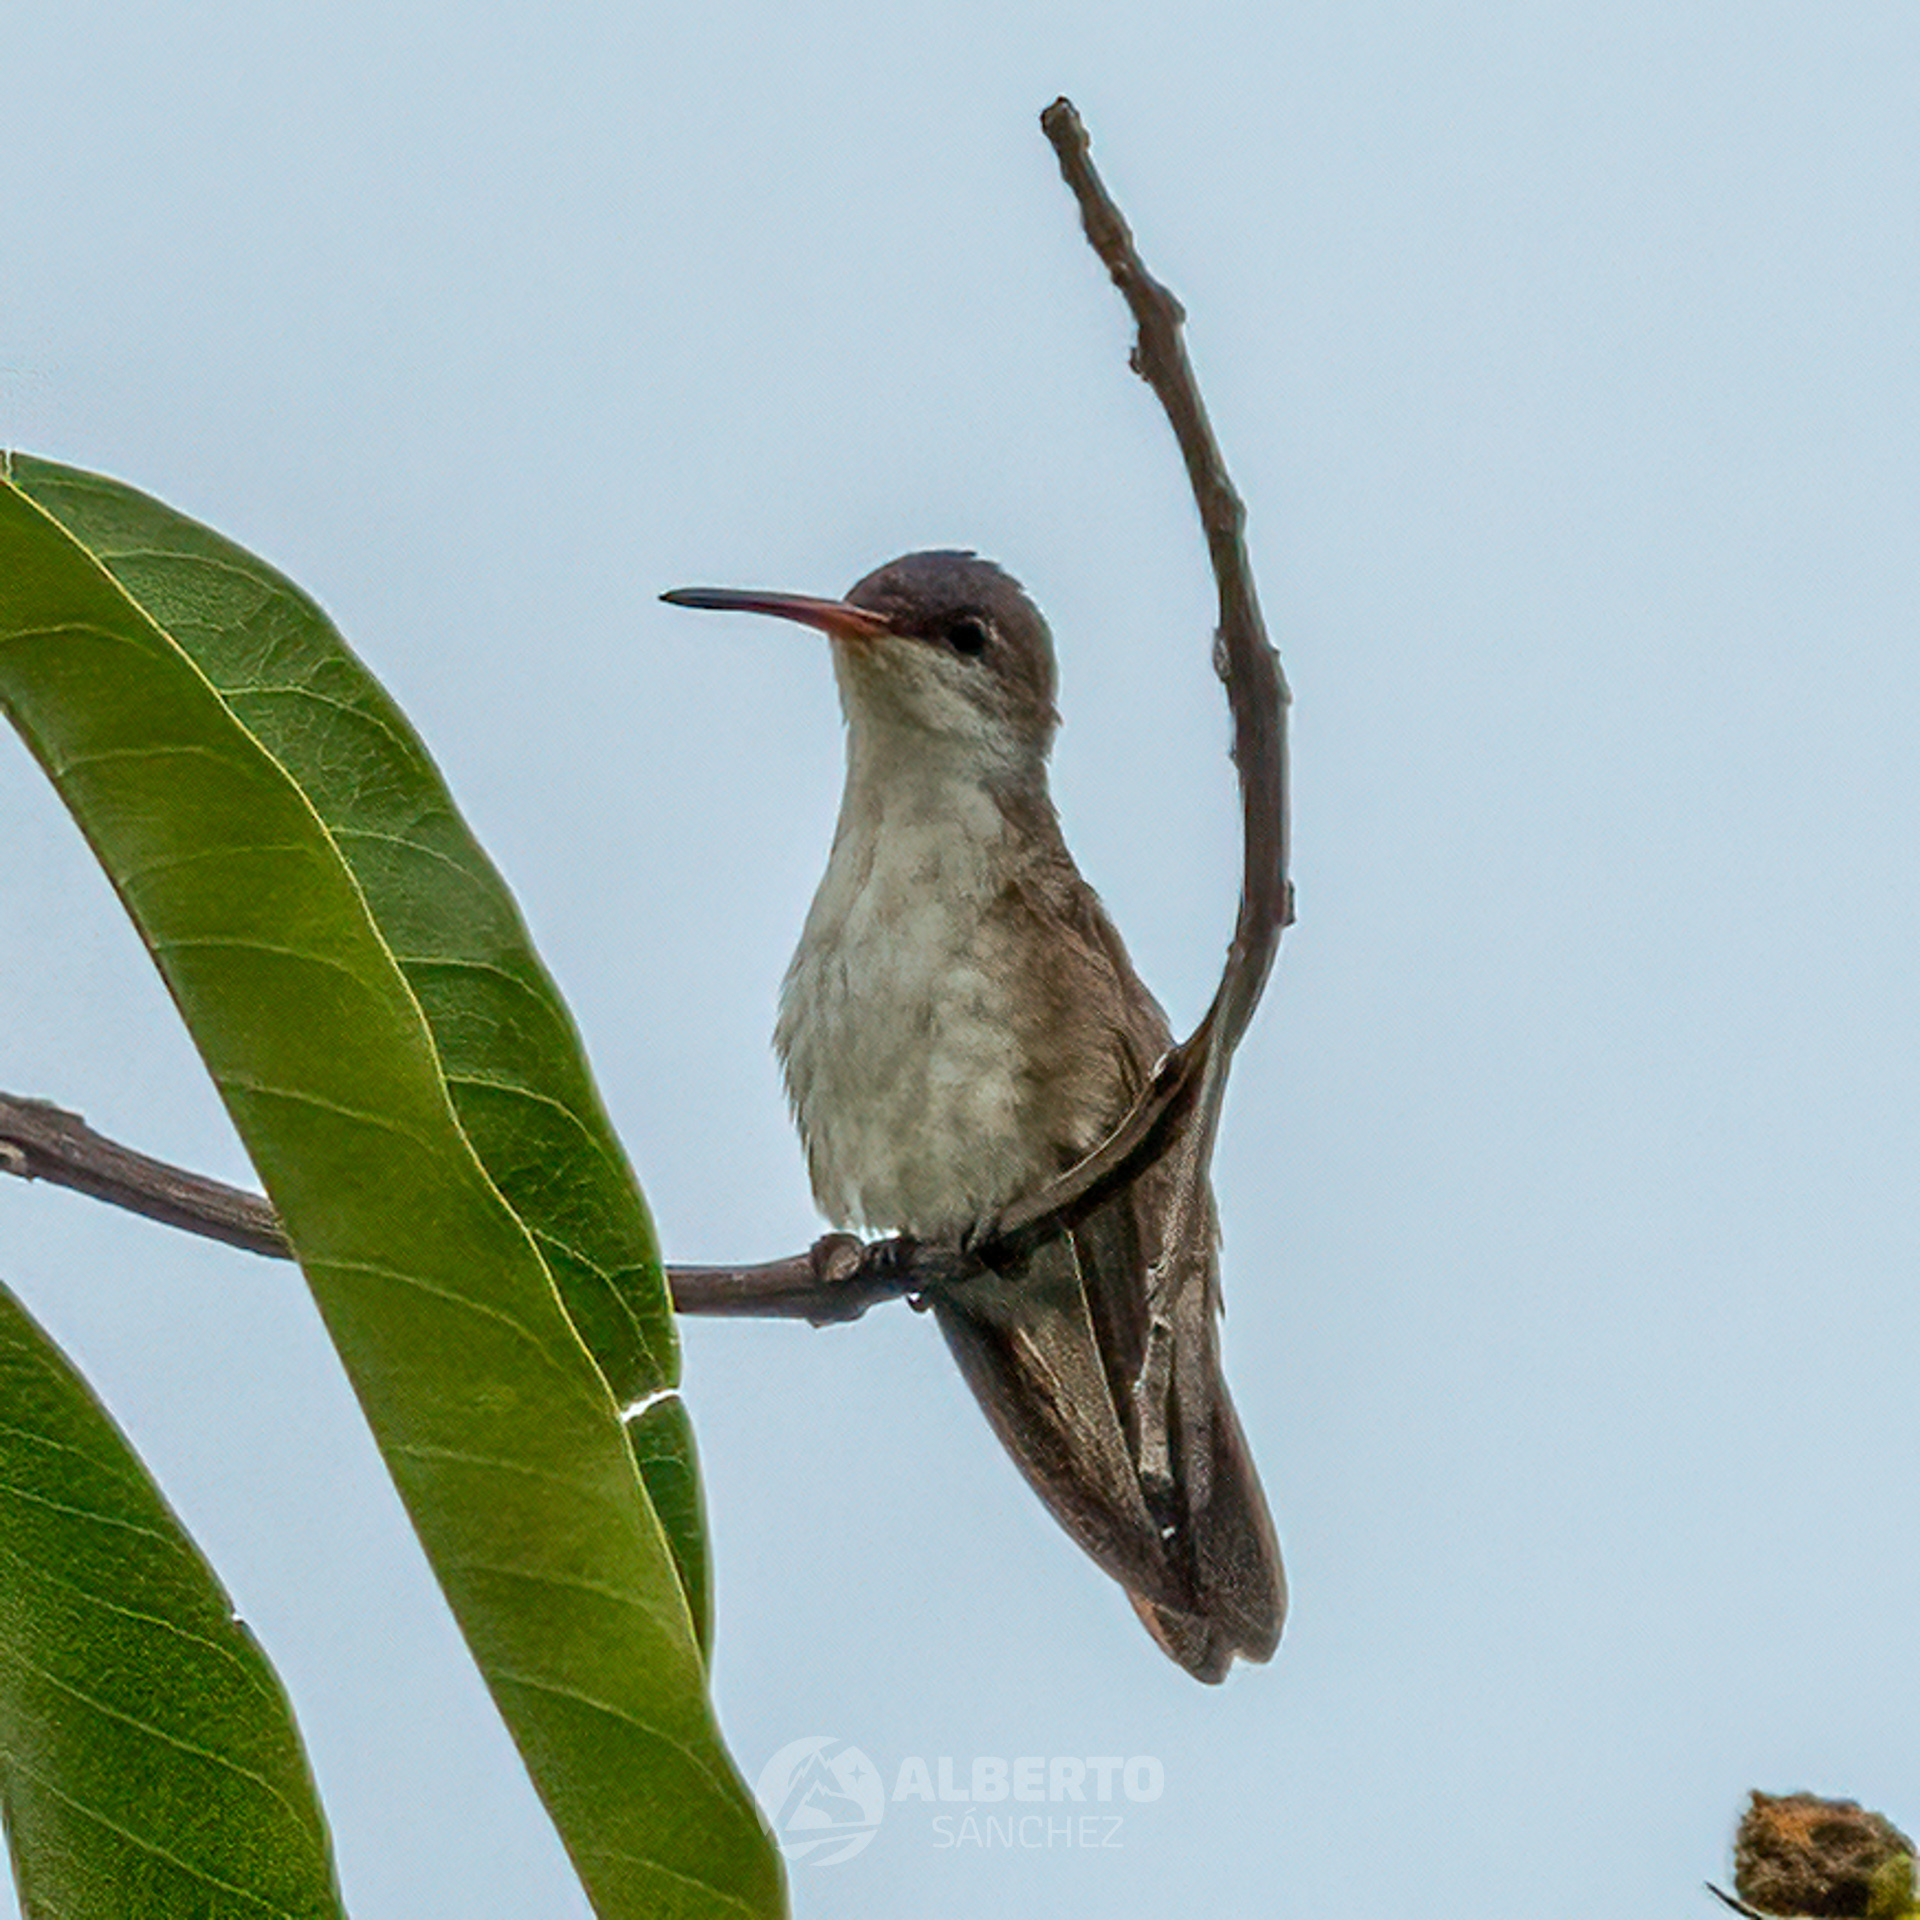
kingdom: Animalia
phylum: Chordata
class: Aves
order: Apodiformes
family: Trochilidae
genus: Leucolia
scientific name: Leucolia violiceps
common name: Violet-crowned hummingbird
